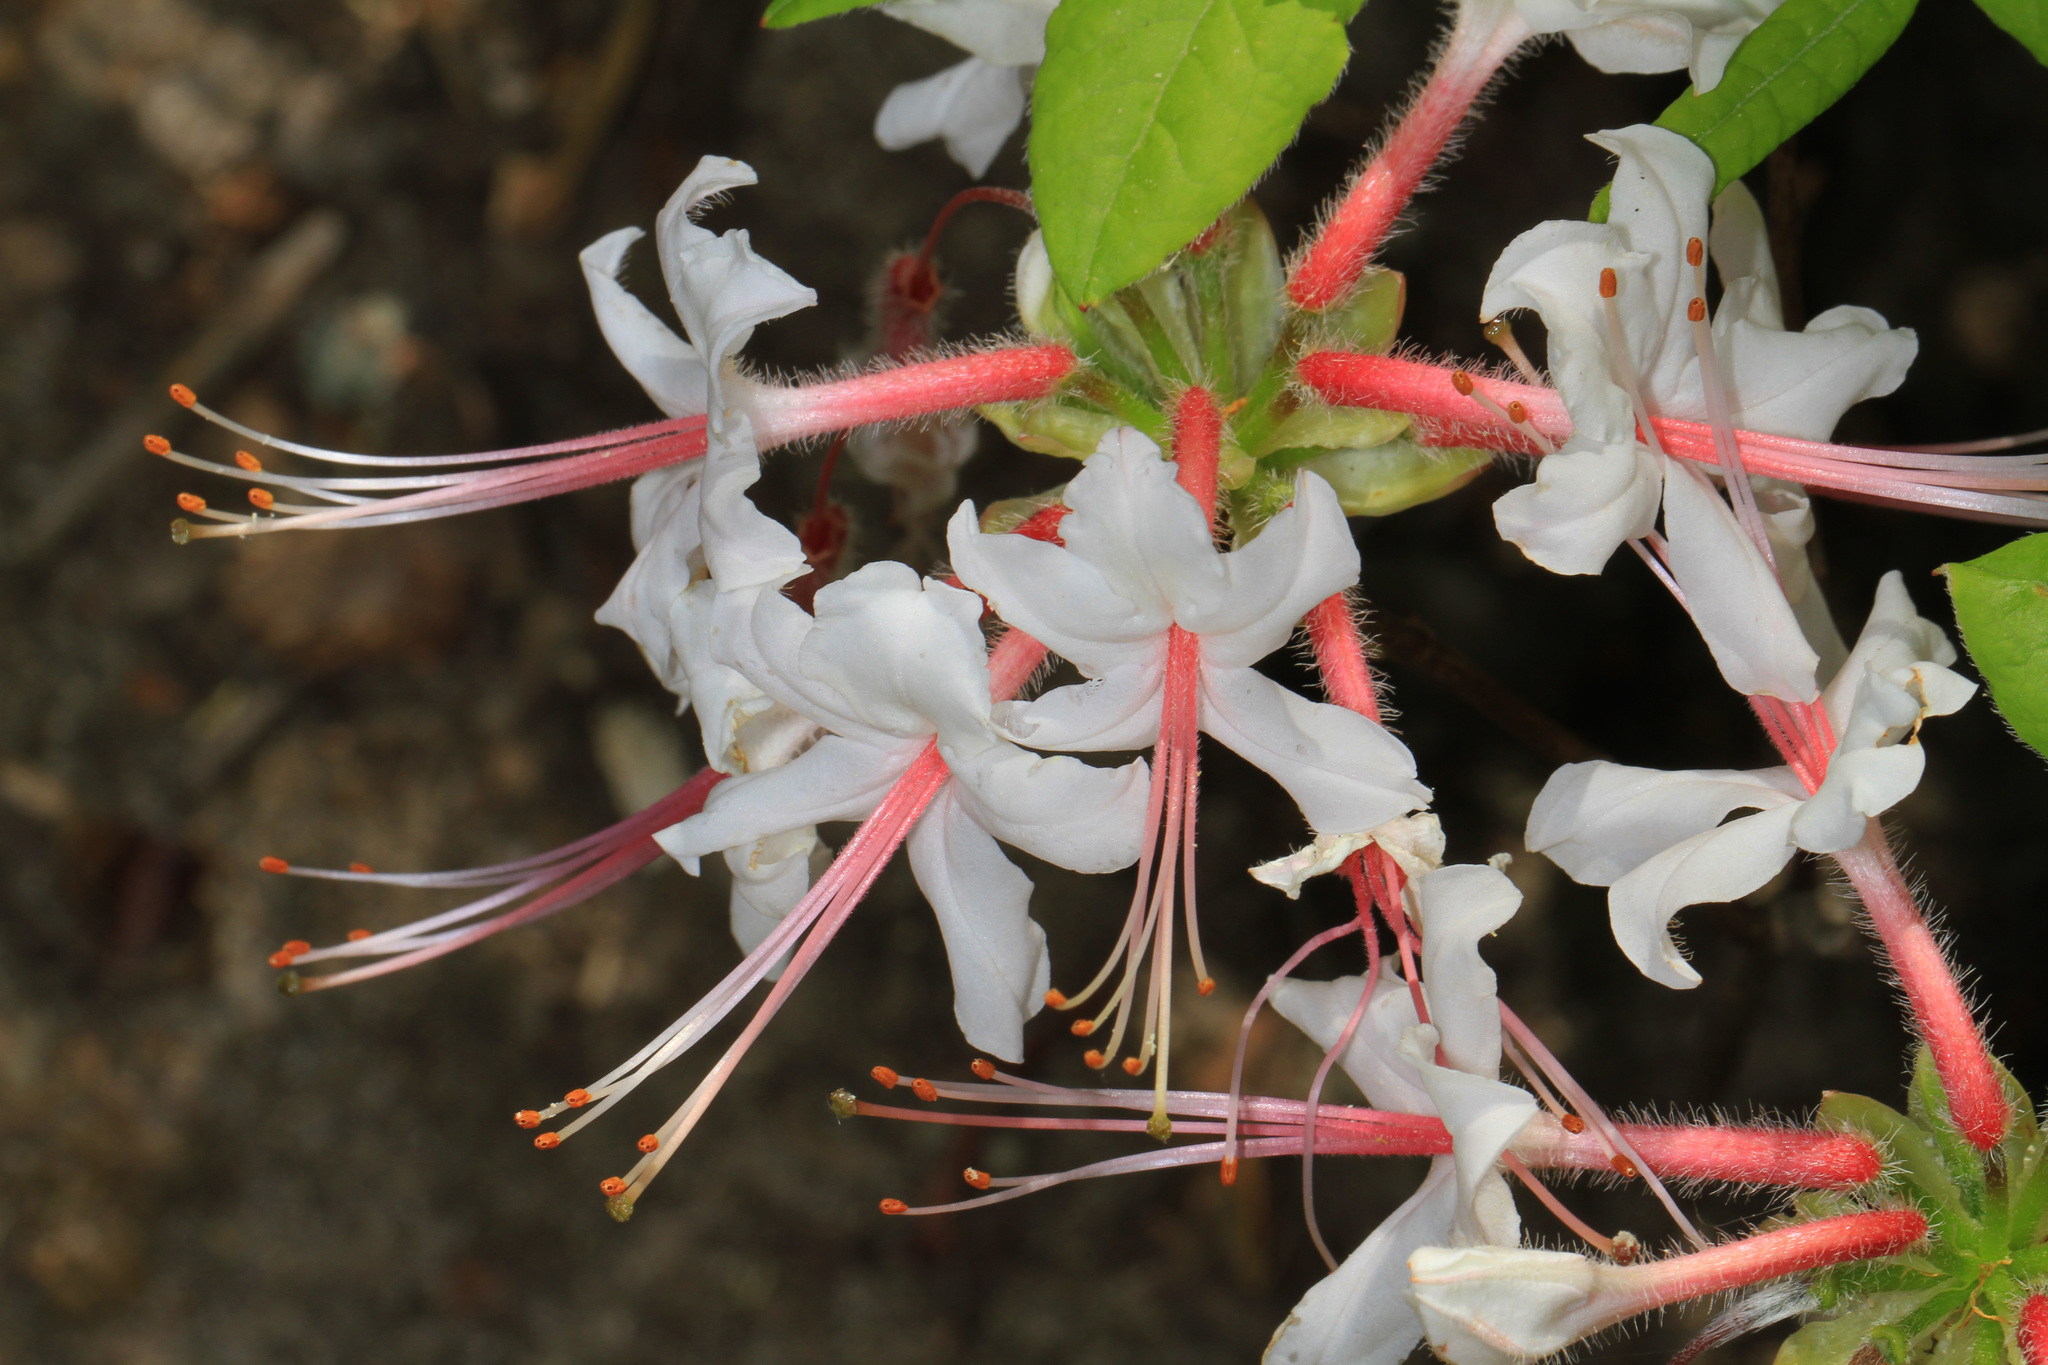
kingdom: Plantae
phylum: Tracheophyta
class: Magnoliopsida
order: Ericales
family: Ericaceae
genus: Rhododendron
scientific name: Rhododendron periclymenoides
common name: Election-pink
